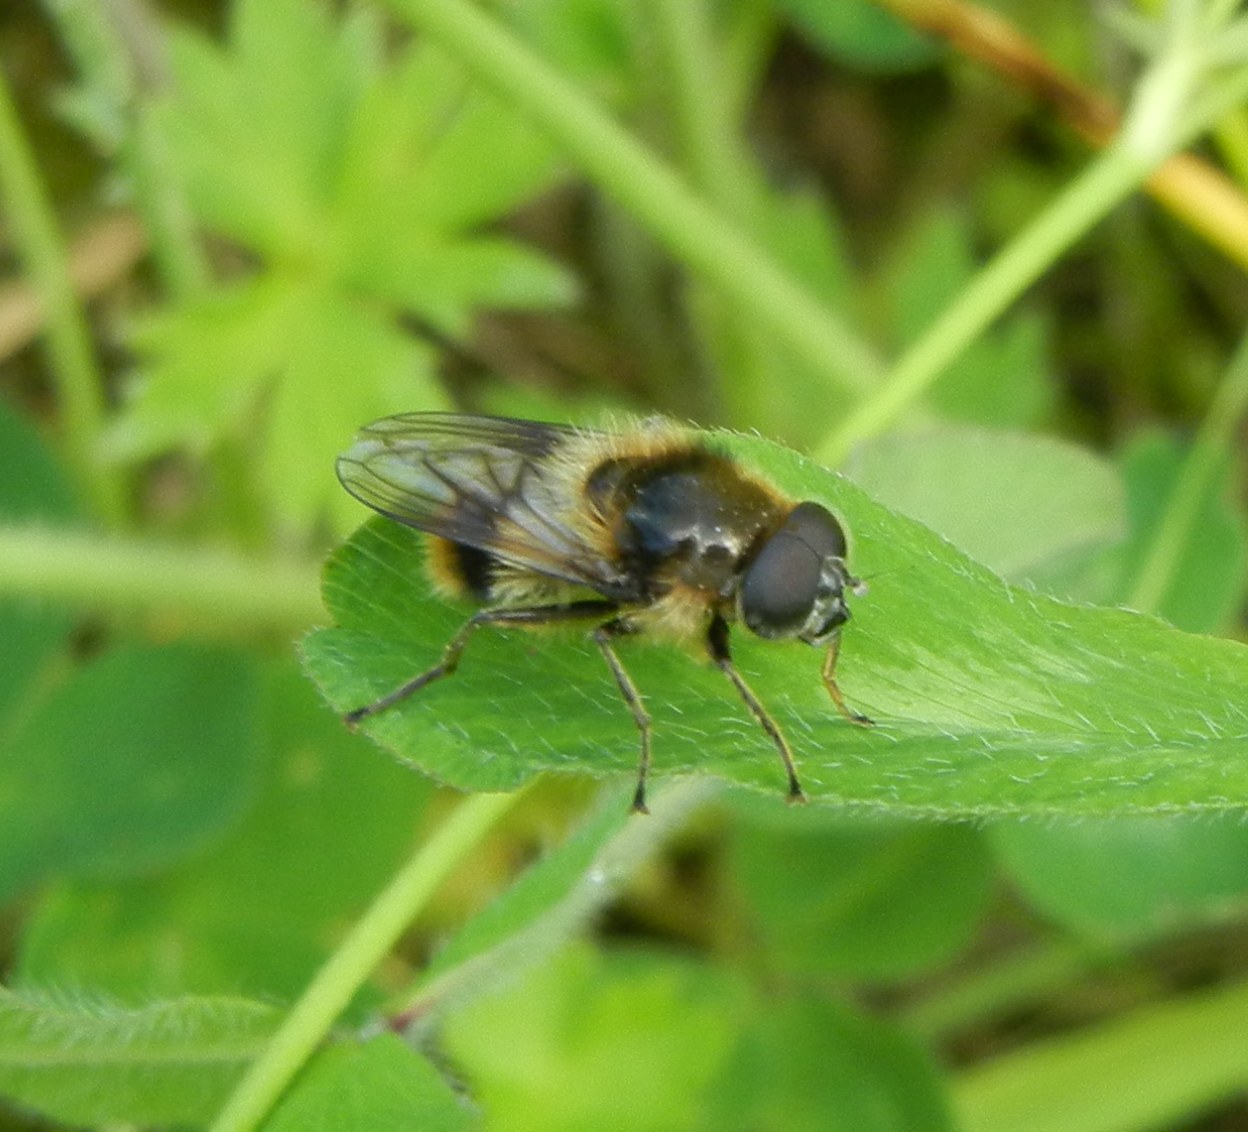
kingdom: Animalia
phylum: Arthropoda
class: Insecta
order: Diptera
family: Syrphidae
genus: Cheilosia
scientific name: Cheilosia illustrata
